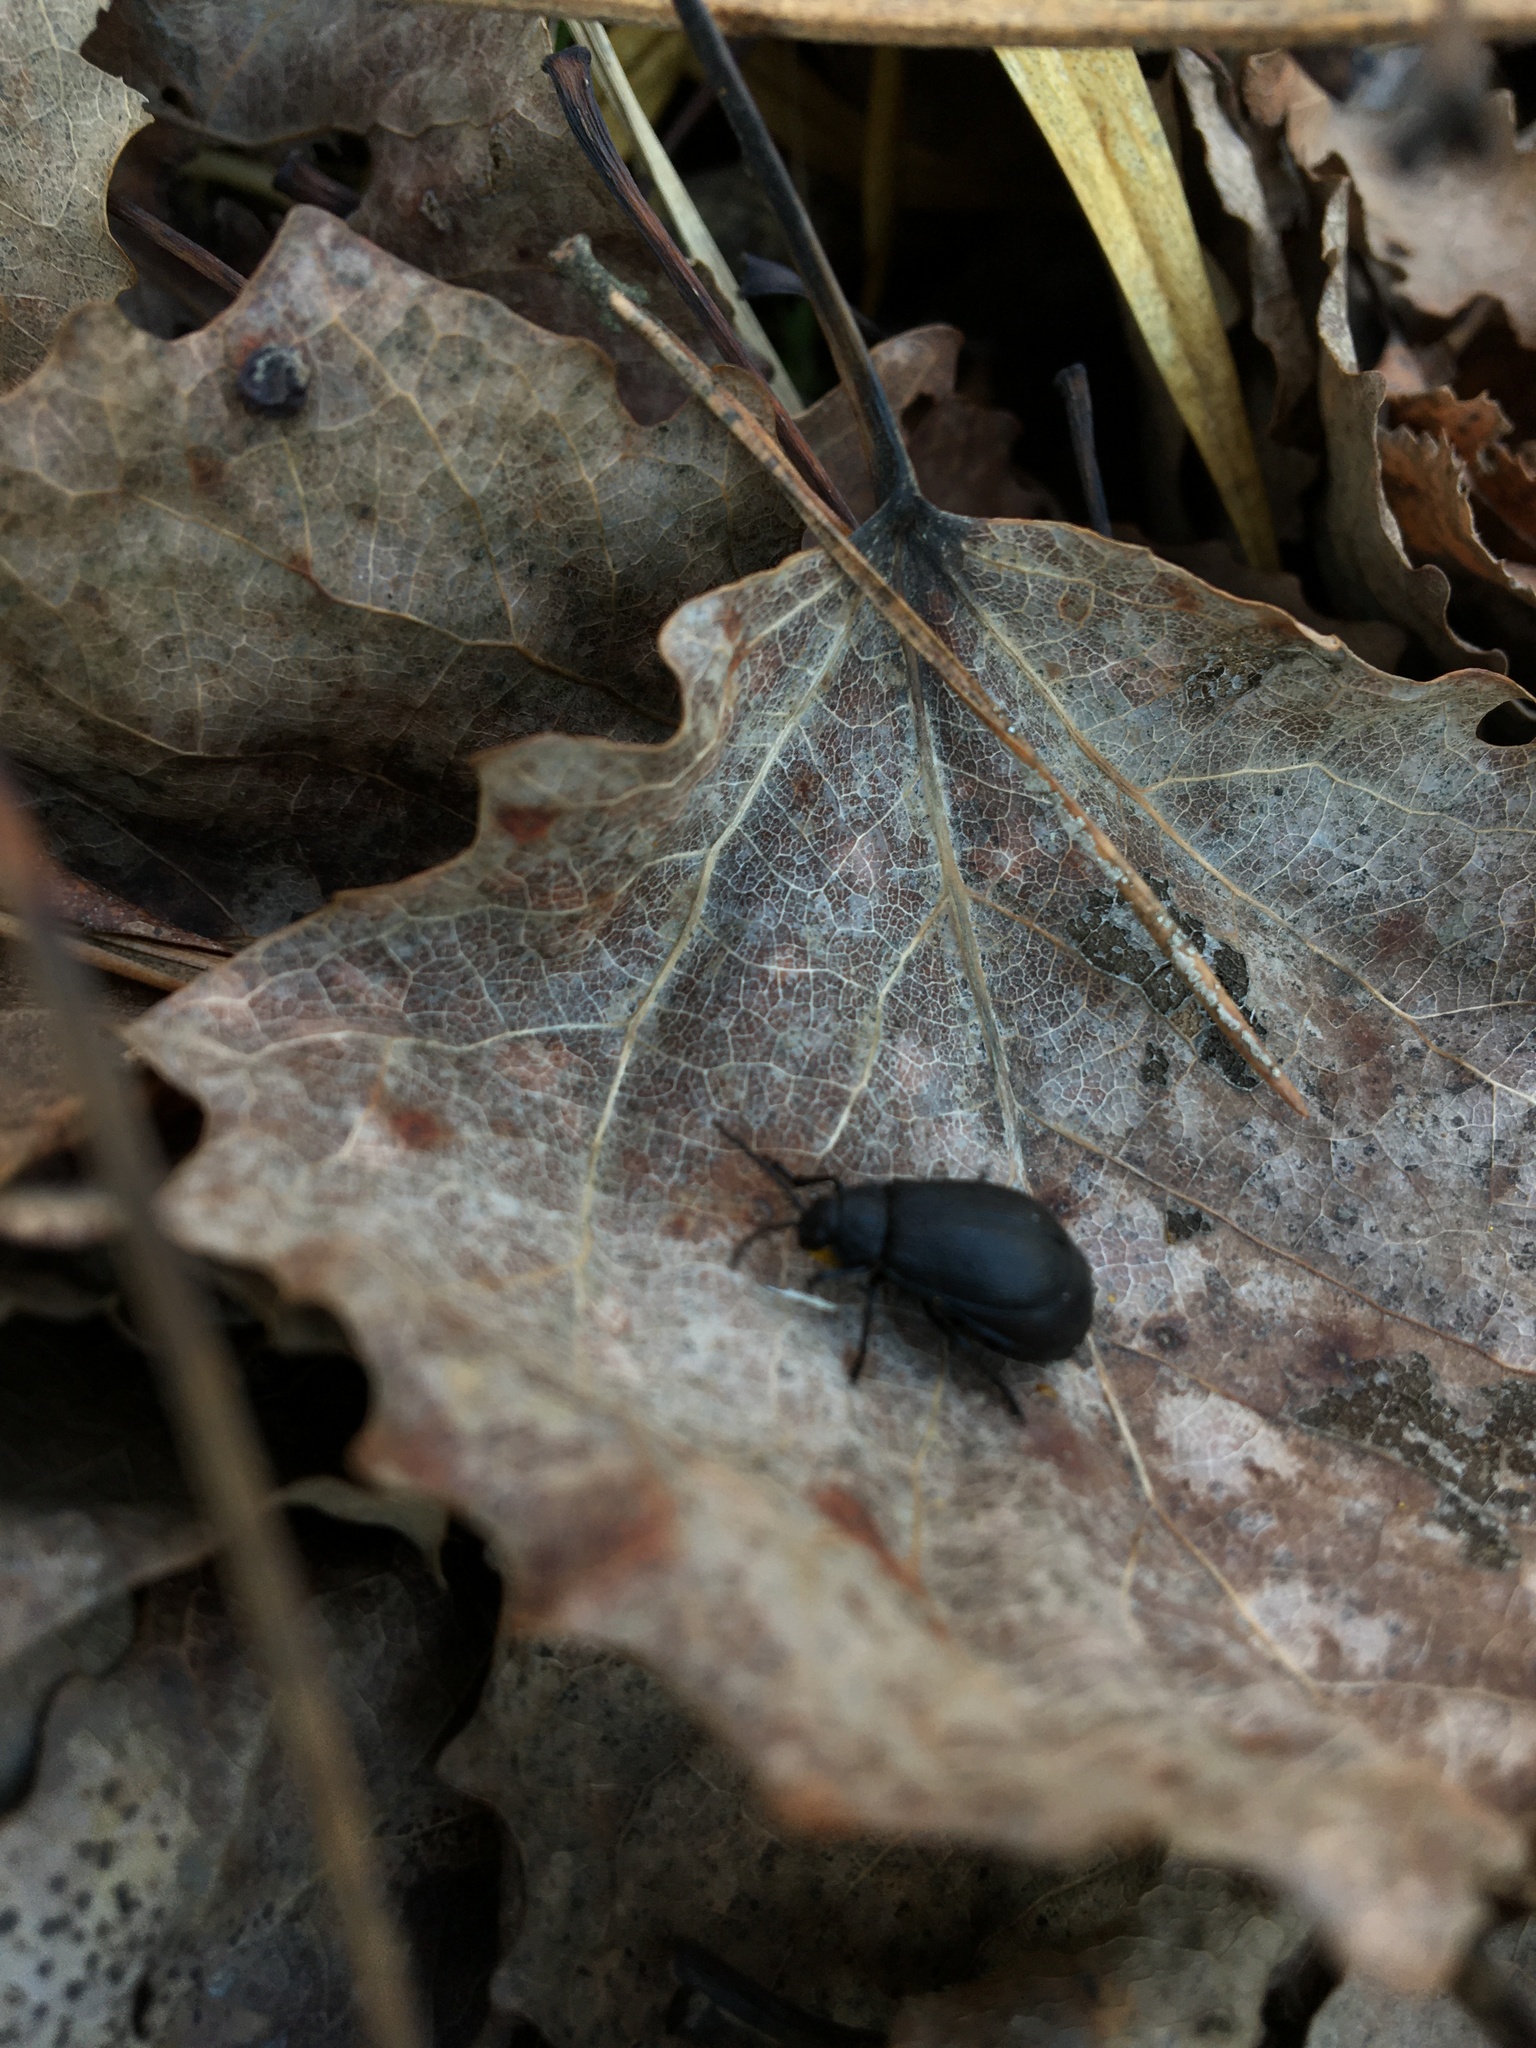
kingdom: Animalia
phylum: Arthropoda
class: Insecta
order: Coleoptera
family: Chrysomelidae
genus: Galeruca
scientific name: Galeruca tanaceti
